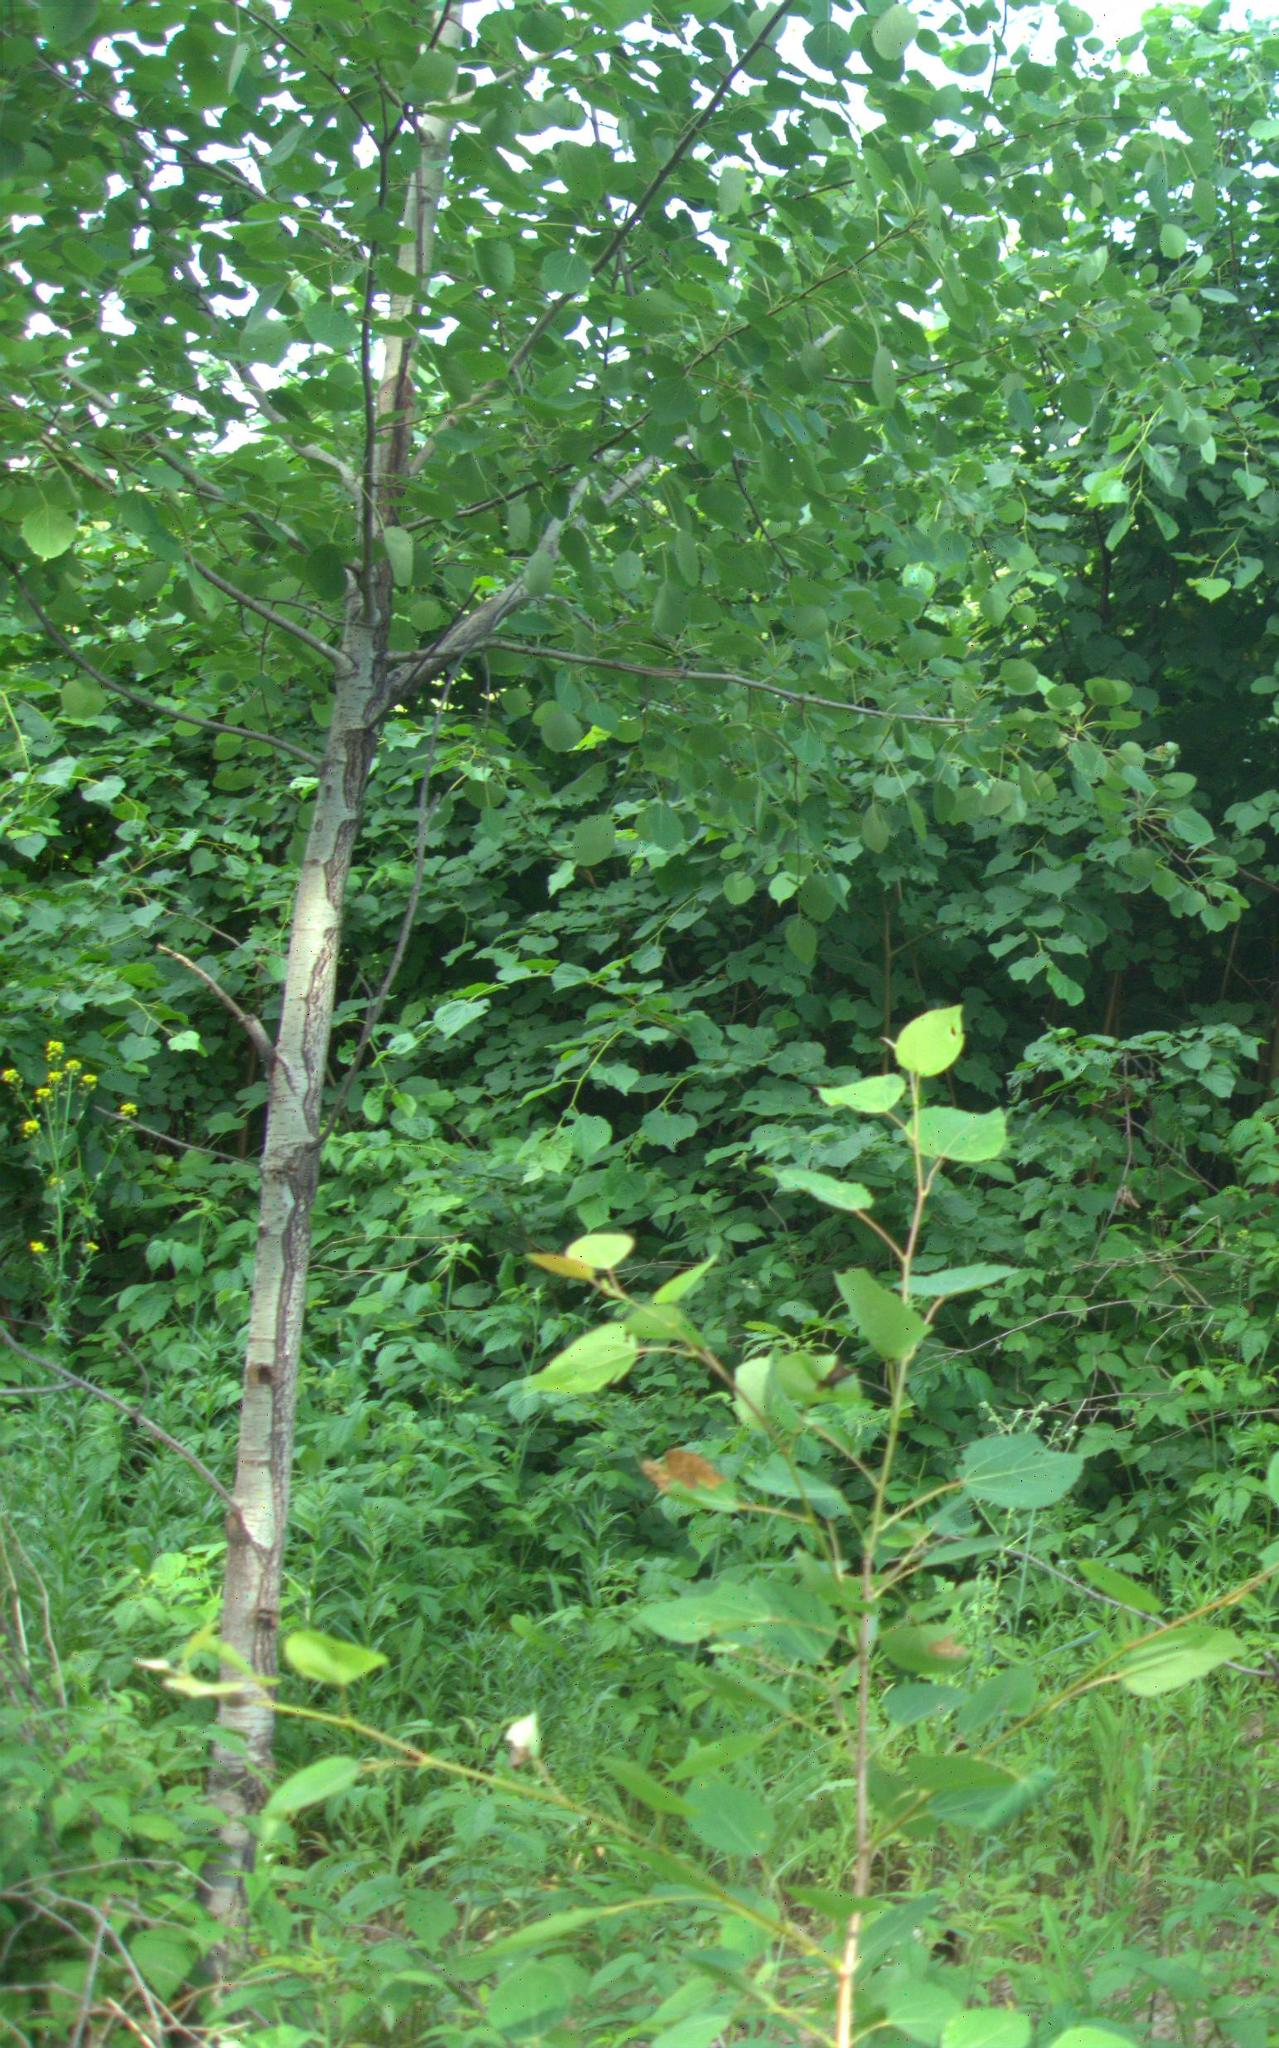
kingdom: Plantae
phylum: Tracheophyta
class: Magnoliopsida
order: Malpighiales
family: Salicaceae
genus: Populus
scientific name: Populus tremula
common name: European aspen
